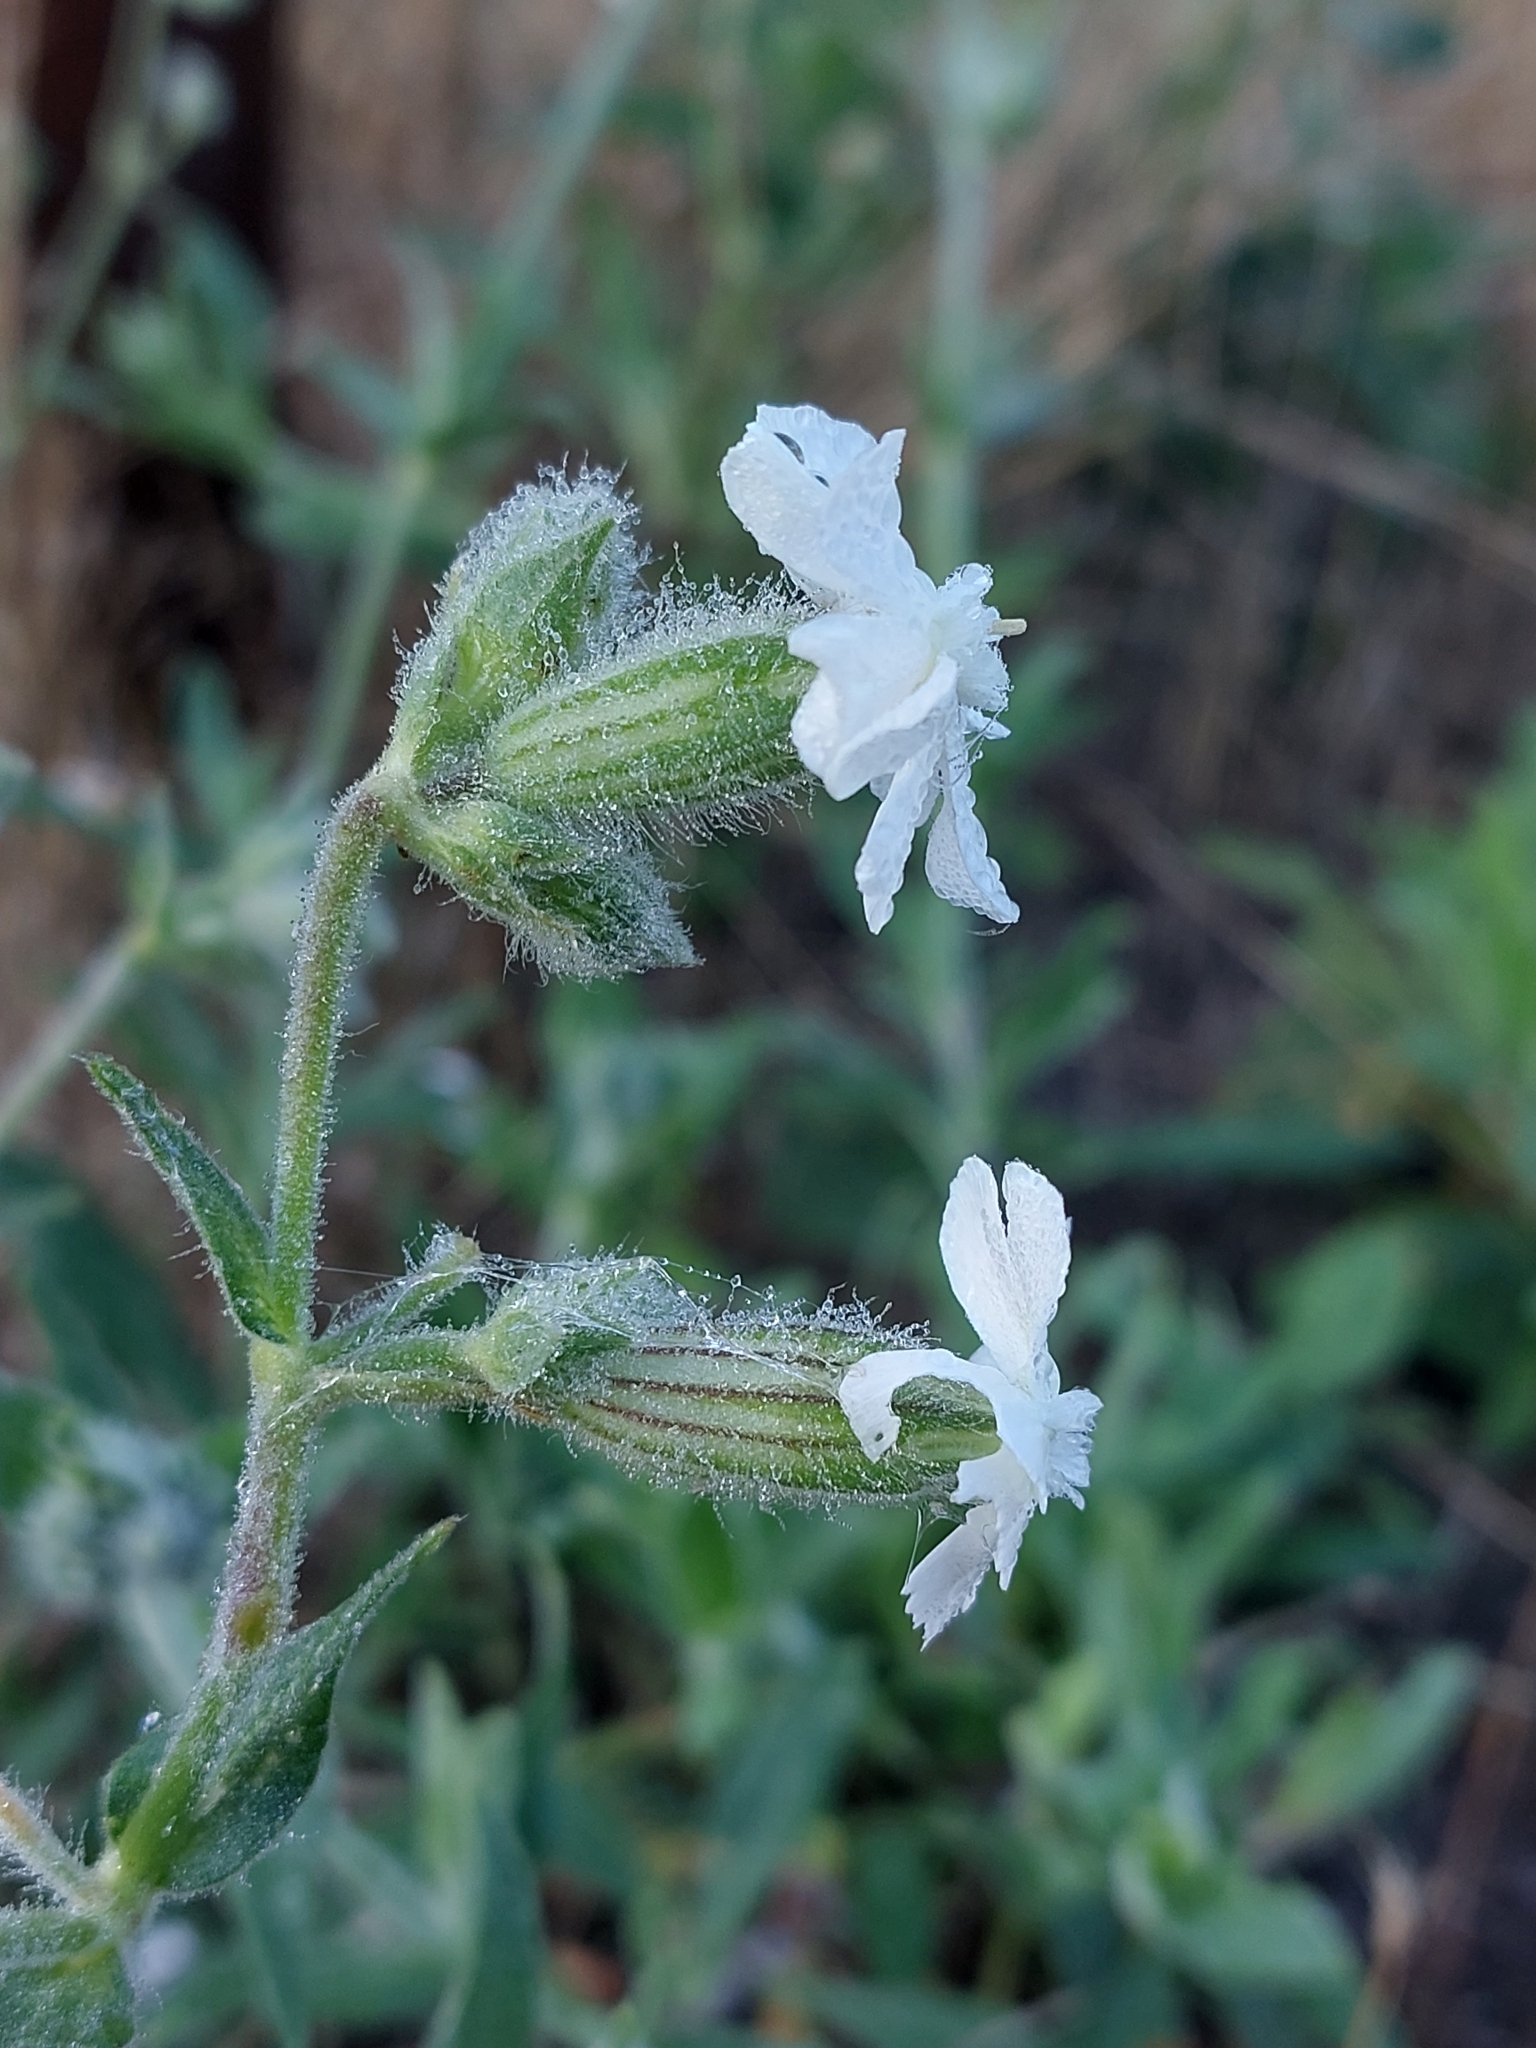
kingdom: Plantae
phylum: Tracheophyta
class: Magnoliopsida
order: Caryophyllales
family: Caryophyllaceae
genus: Silene
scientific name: Silene latifolia
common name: White campion
